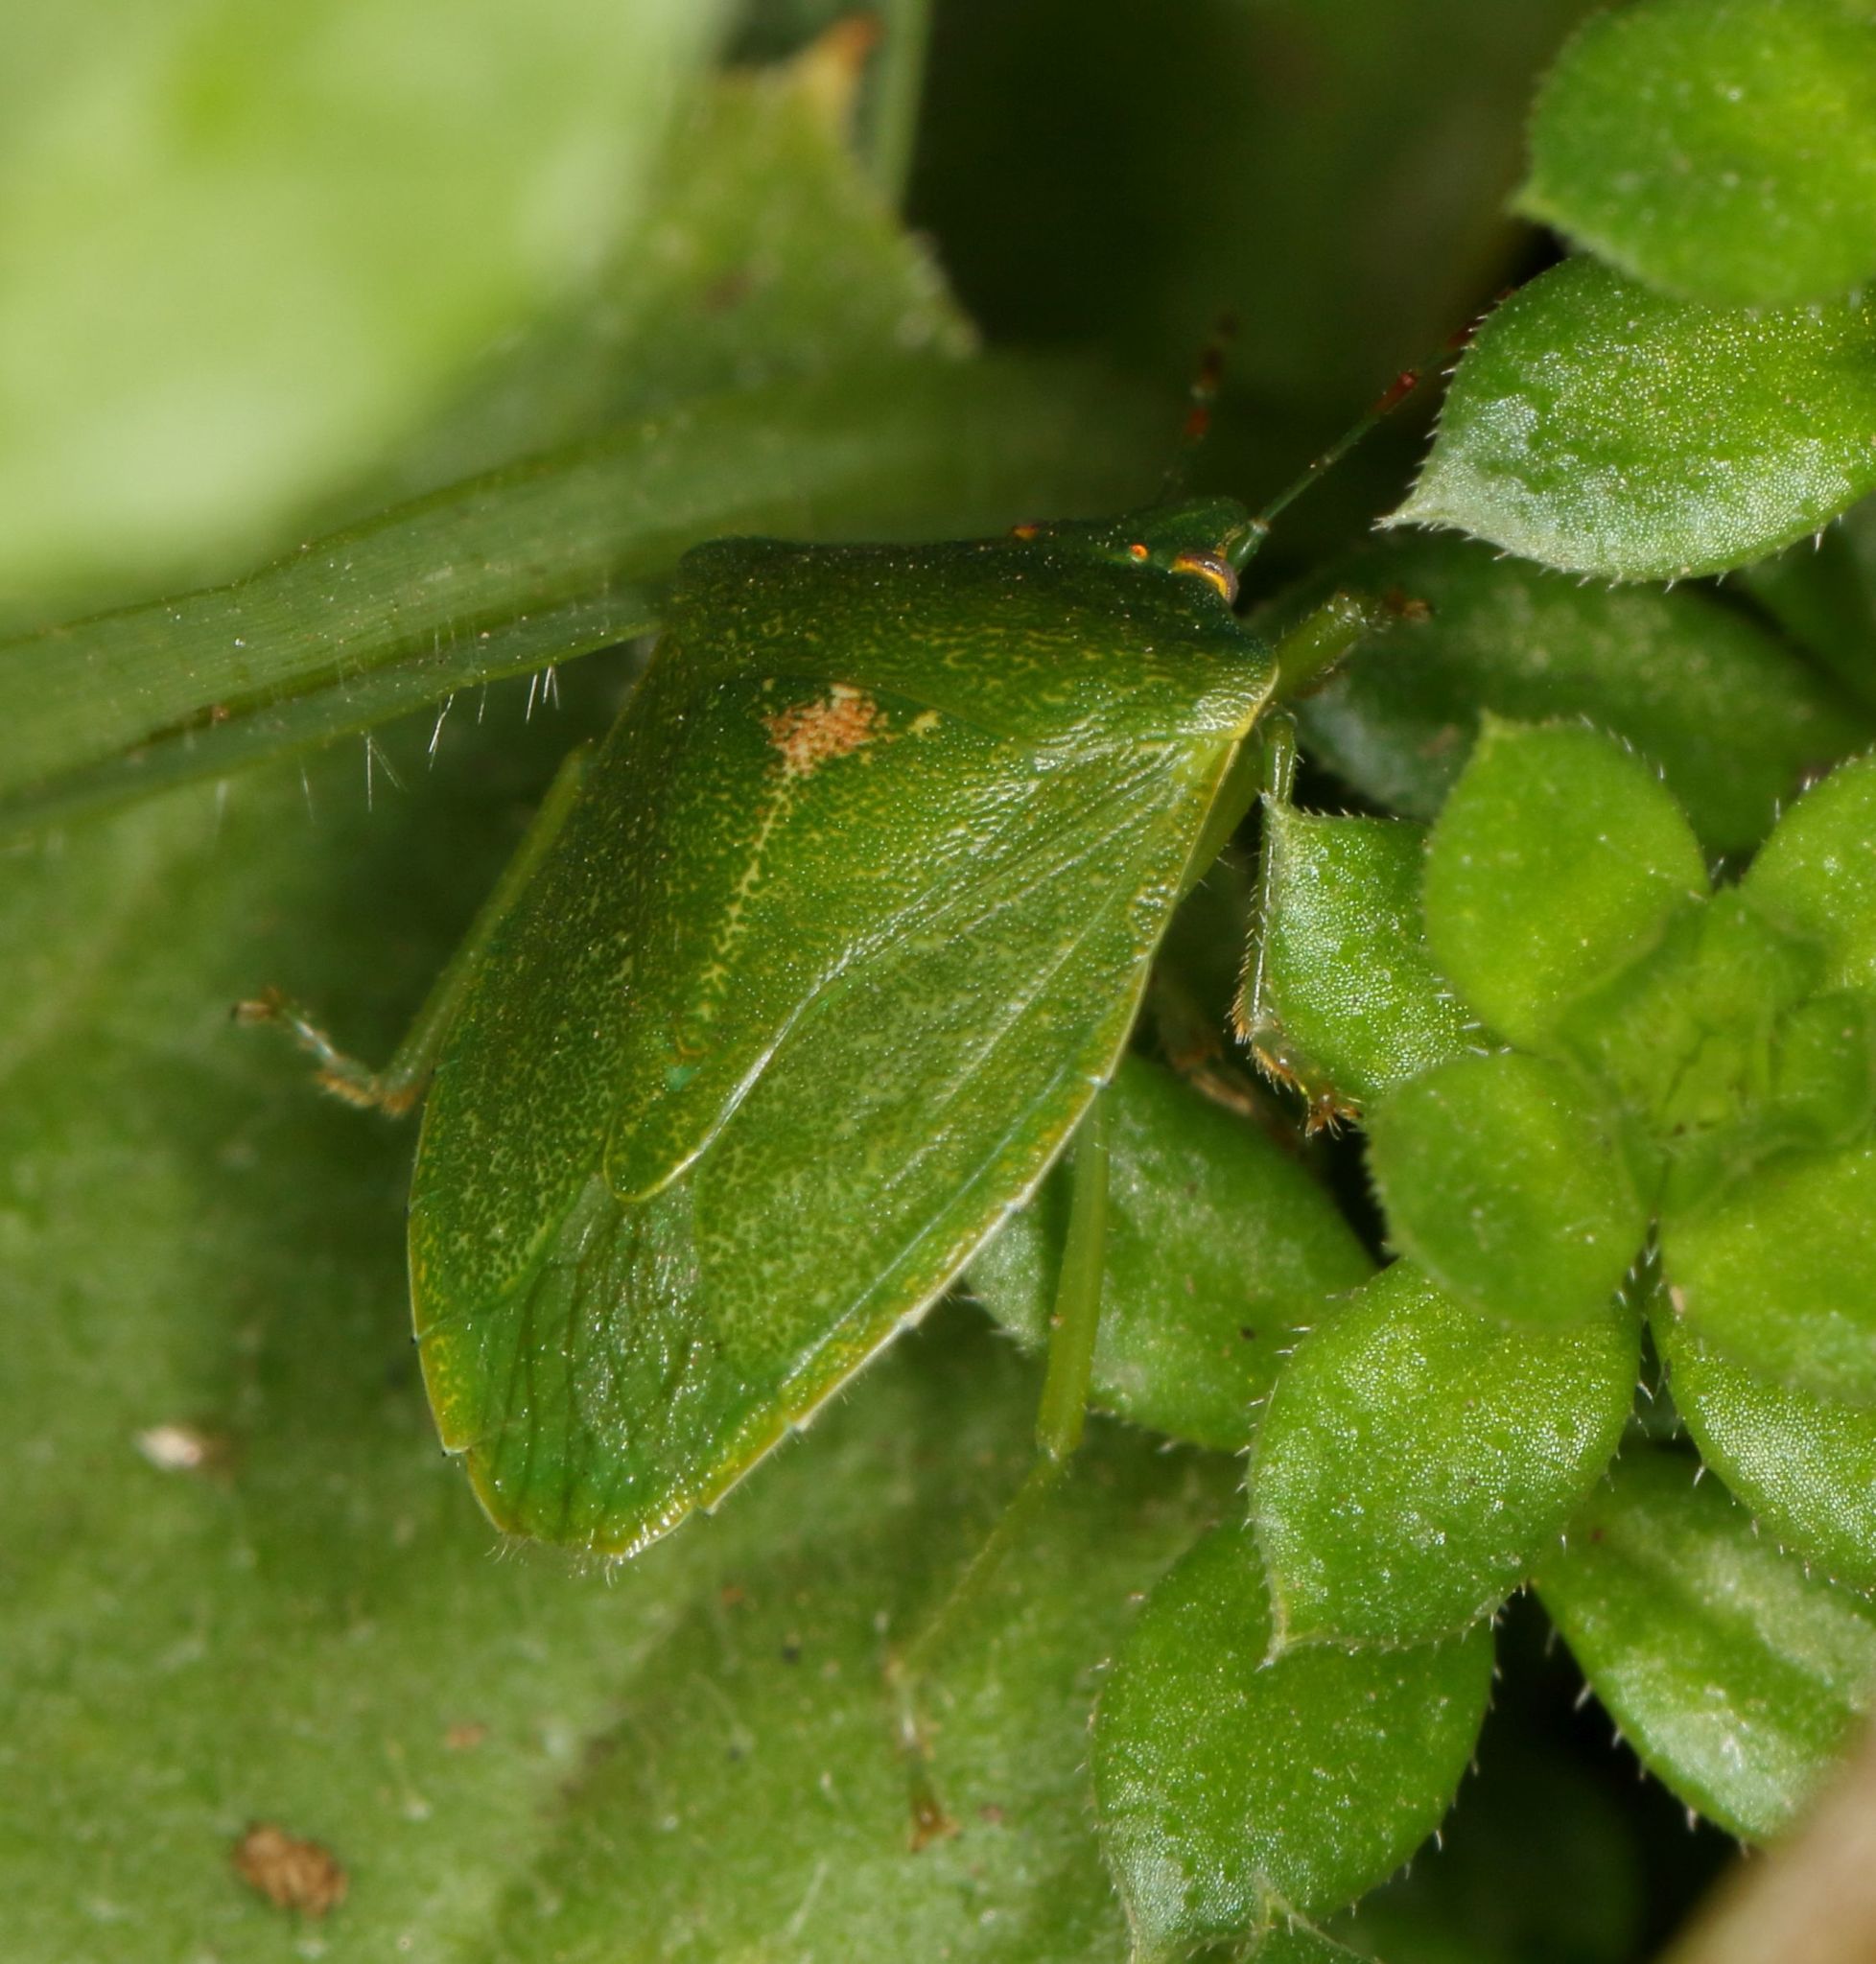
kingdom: Animalia
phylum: Arthropoda
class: Insecta
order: Hemiptera
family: Pentatomidae
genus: Nezara
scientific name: Nezara naspira
